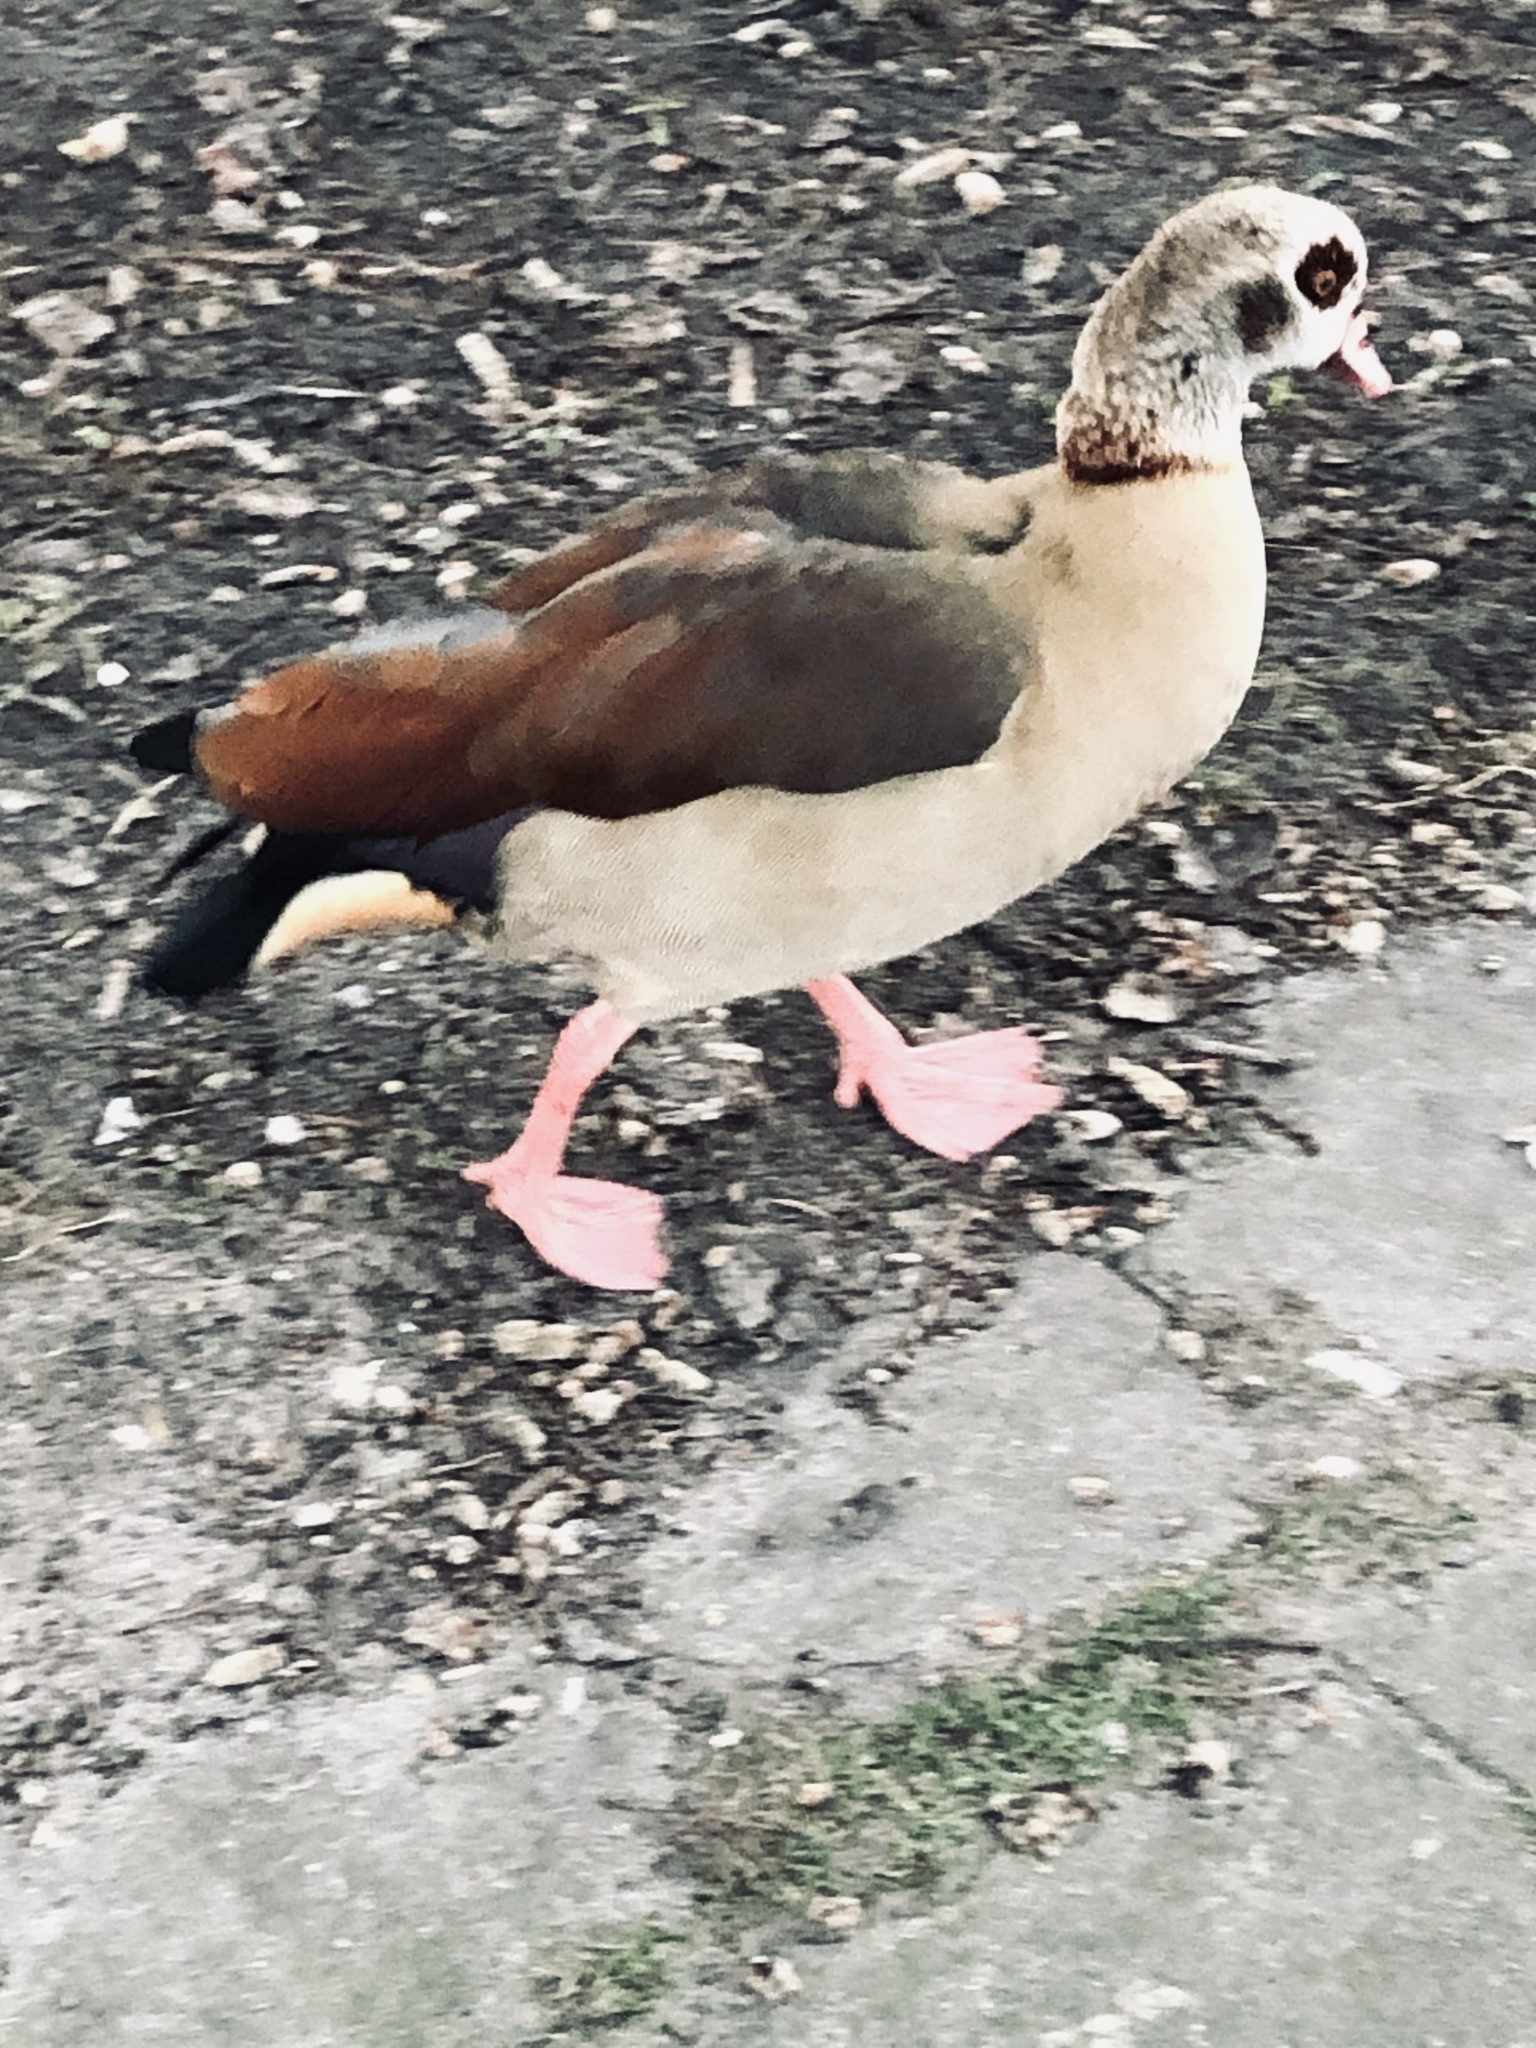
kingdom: Animalia
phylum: Chordata
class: Aves
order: Anseriformes
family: Anatidae
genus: Alopochen
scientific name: Alopochen aegyptiaca
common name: Egyptian goose
